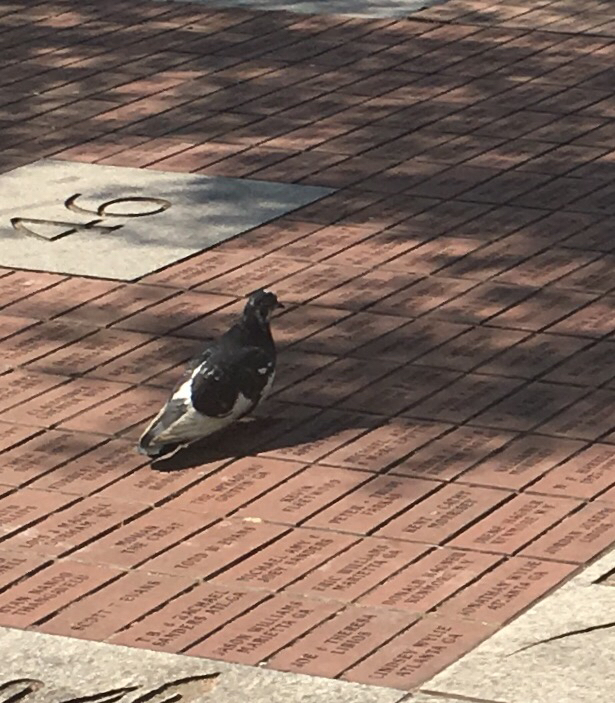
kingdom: Animalia
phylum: Chordata
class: Aves
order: Columbiformes
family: Columbidae
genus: Columba
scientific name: Columba livia
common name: Rock pigeon
